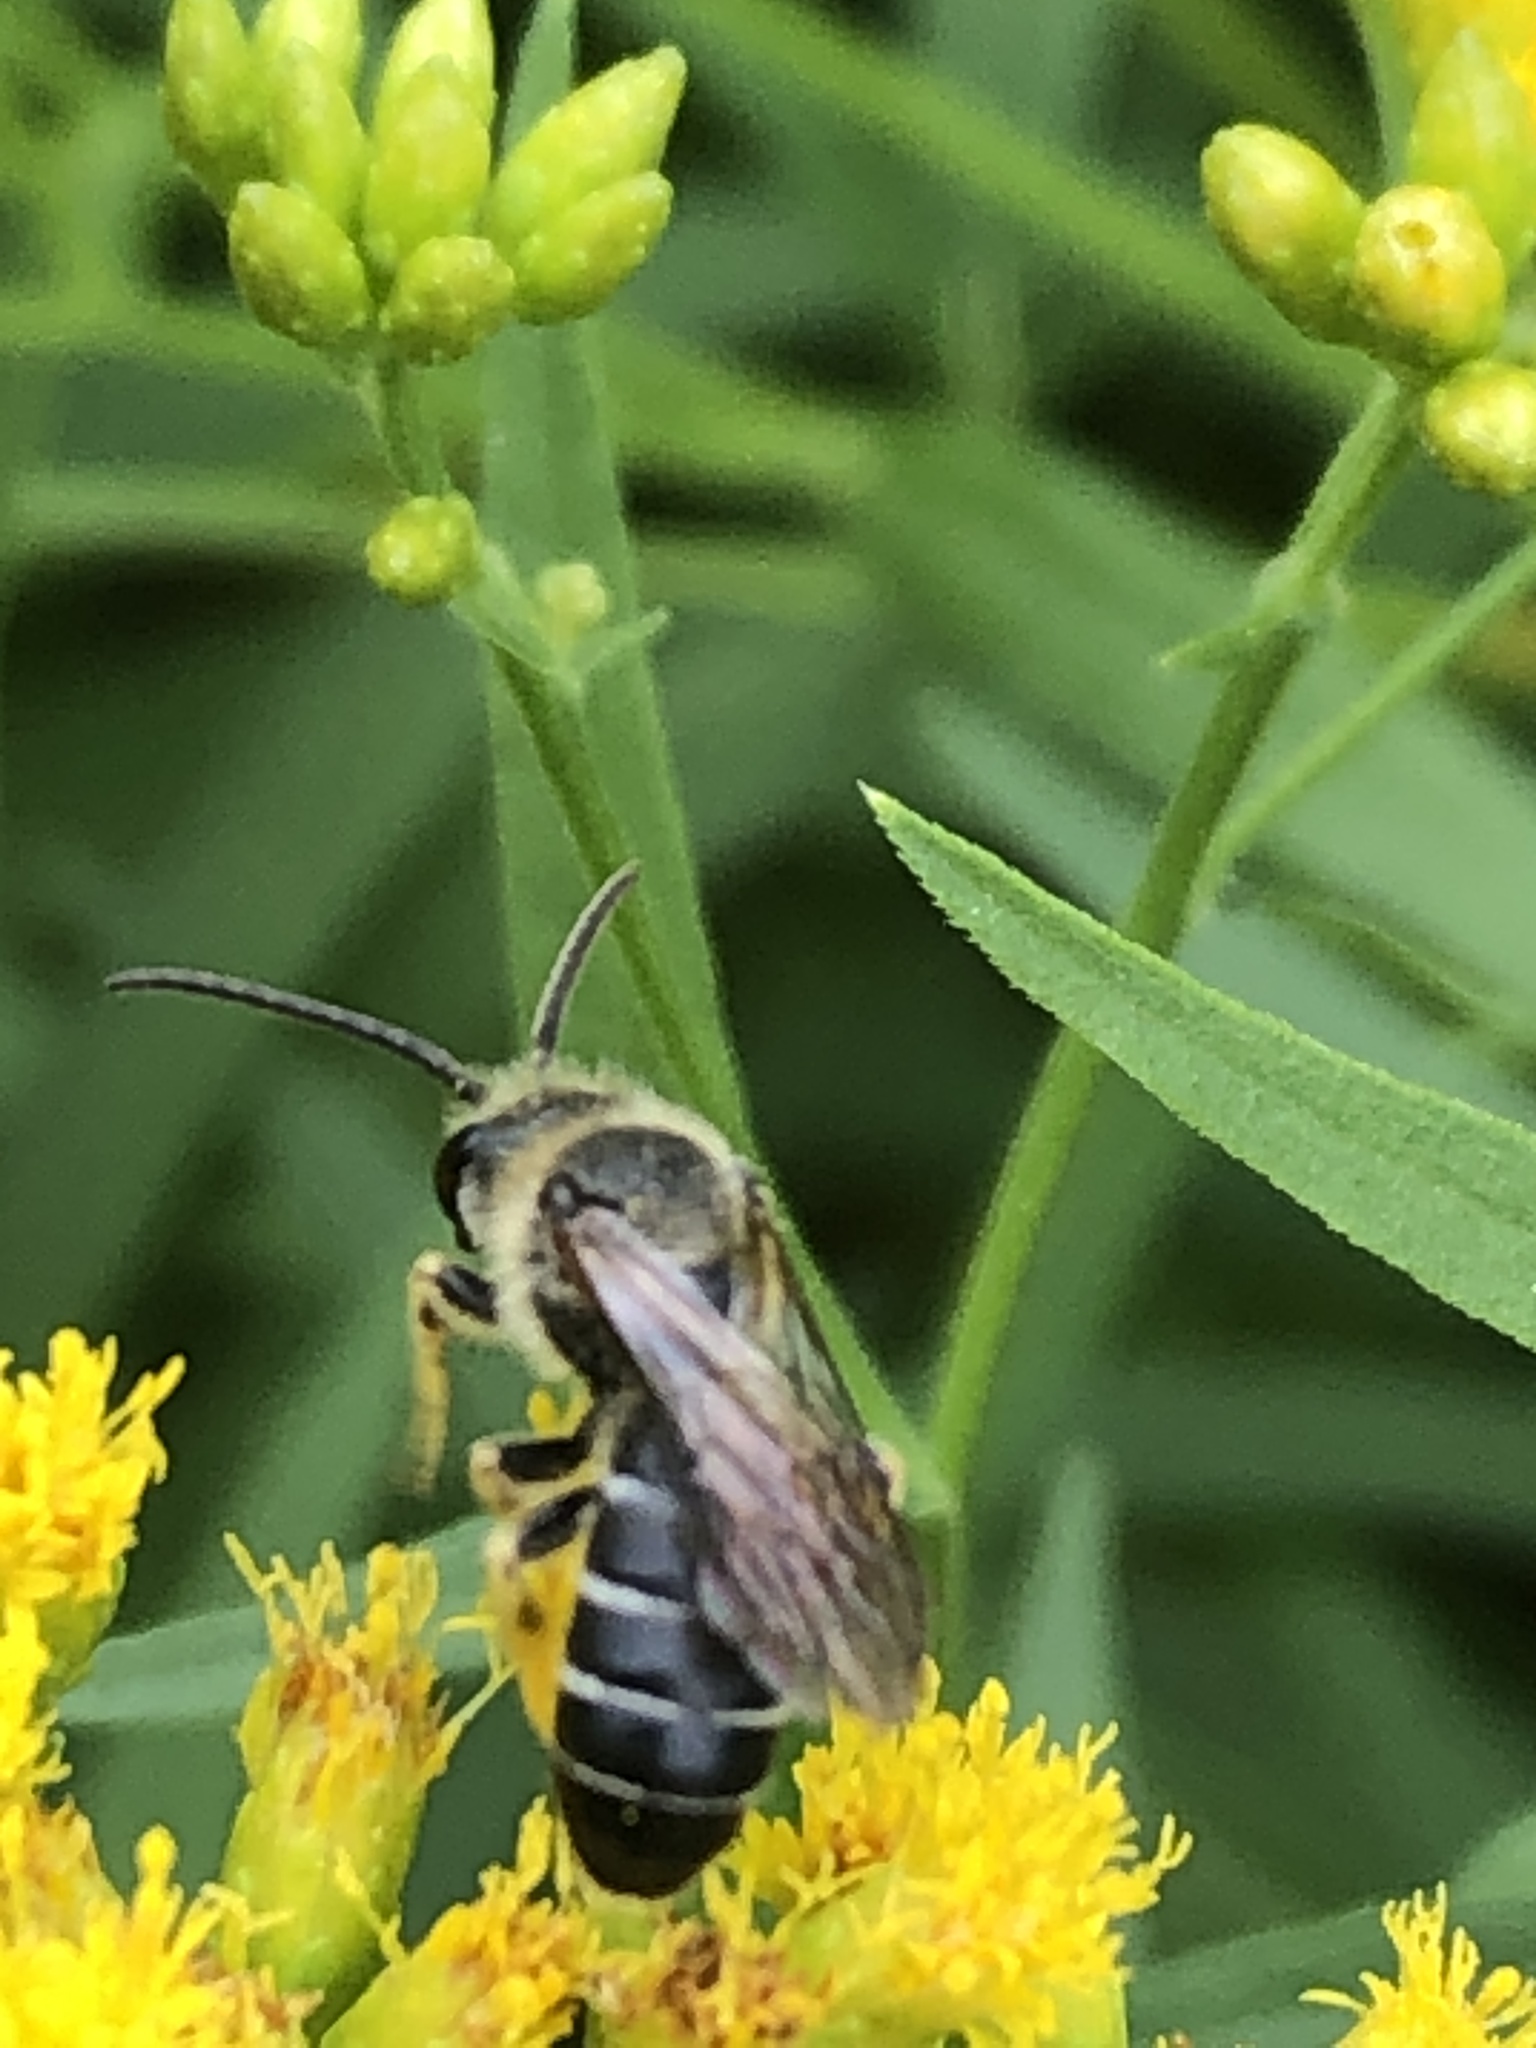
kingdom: Animalia
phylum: Arthropoda
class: Insecta
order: Hymenoptera
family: Halictidae
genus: Halictus
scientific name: Halictus rubicundus
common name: Orange-legged furrow bee
